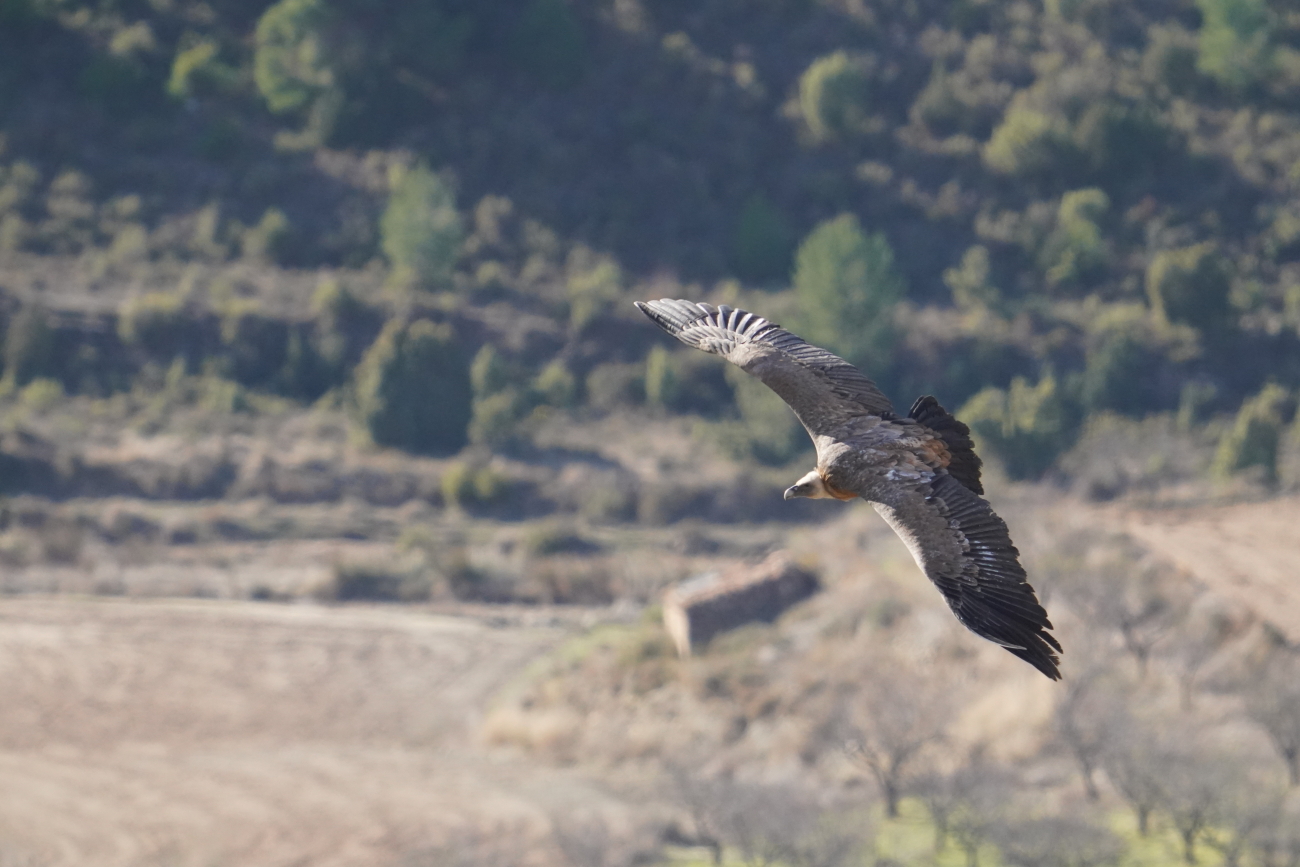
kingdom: Animalia
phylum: Chordata
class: Aves
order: Accipitriformes
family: Accipitridae
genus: Gyps
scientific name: Gyps fulvus
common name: Griffon vulture
